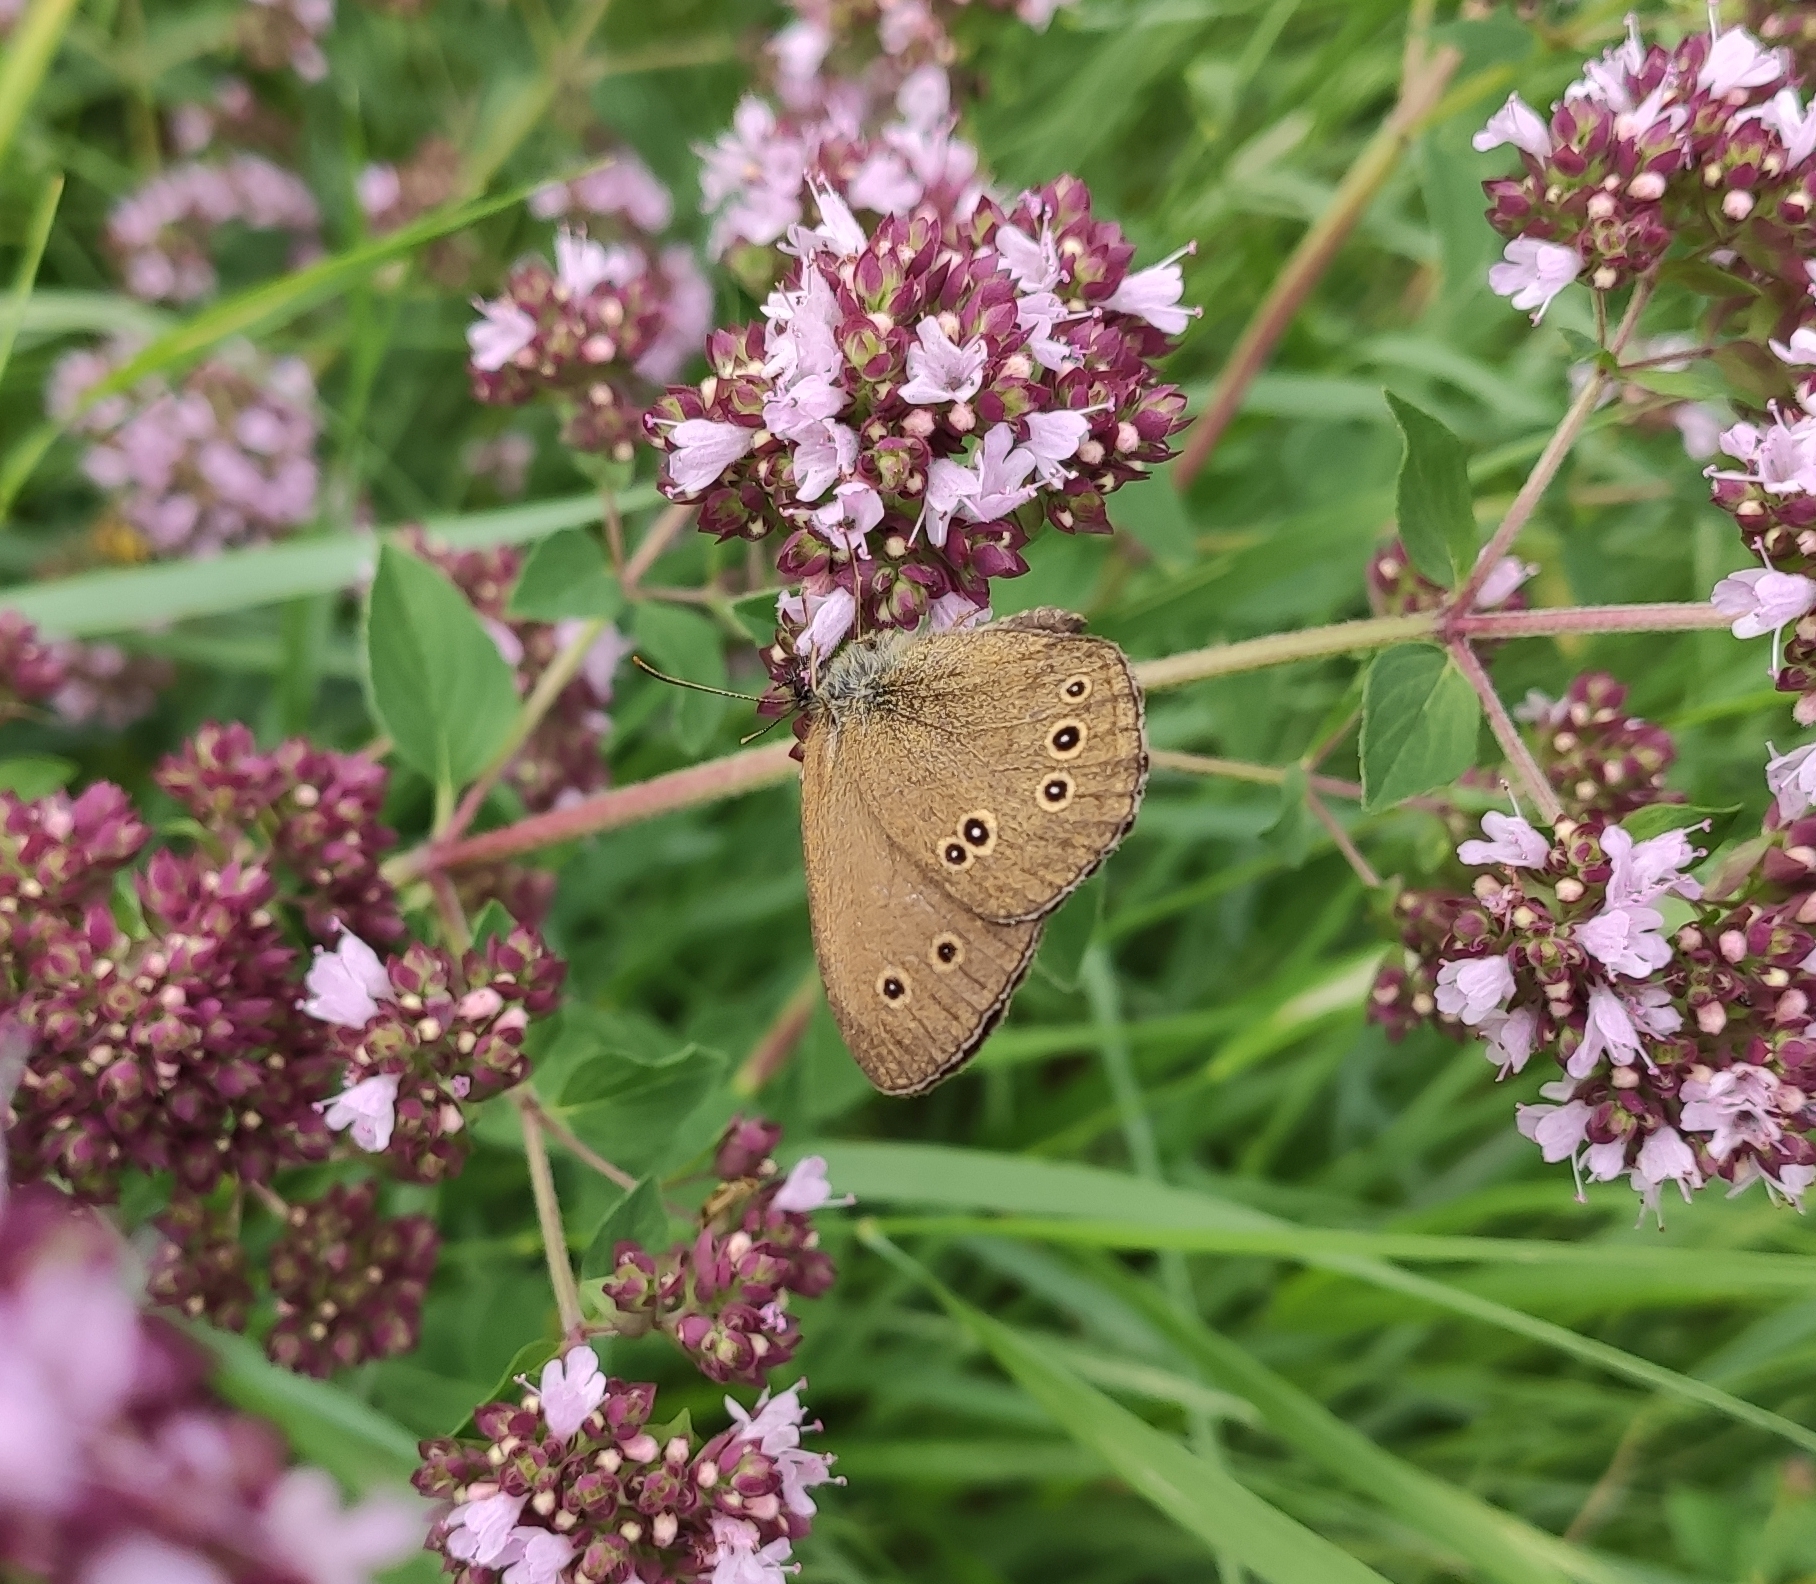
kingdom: Animalia
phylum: Arthropoda
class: Insecta
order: Lepidoptera
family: Nymphalidae
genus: Aphantopus
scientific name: Aphantopus hyperantus
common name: Ringlet
